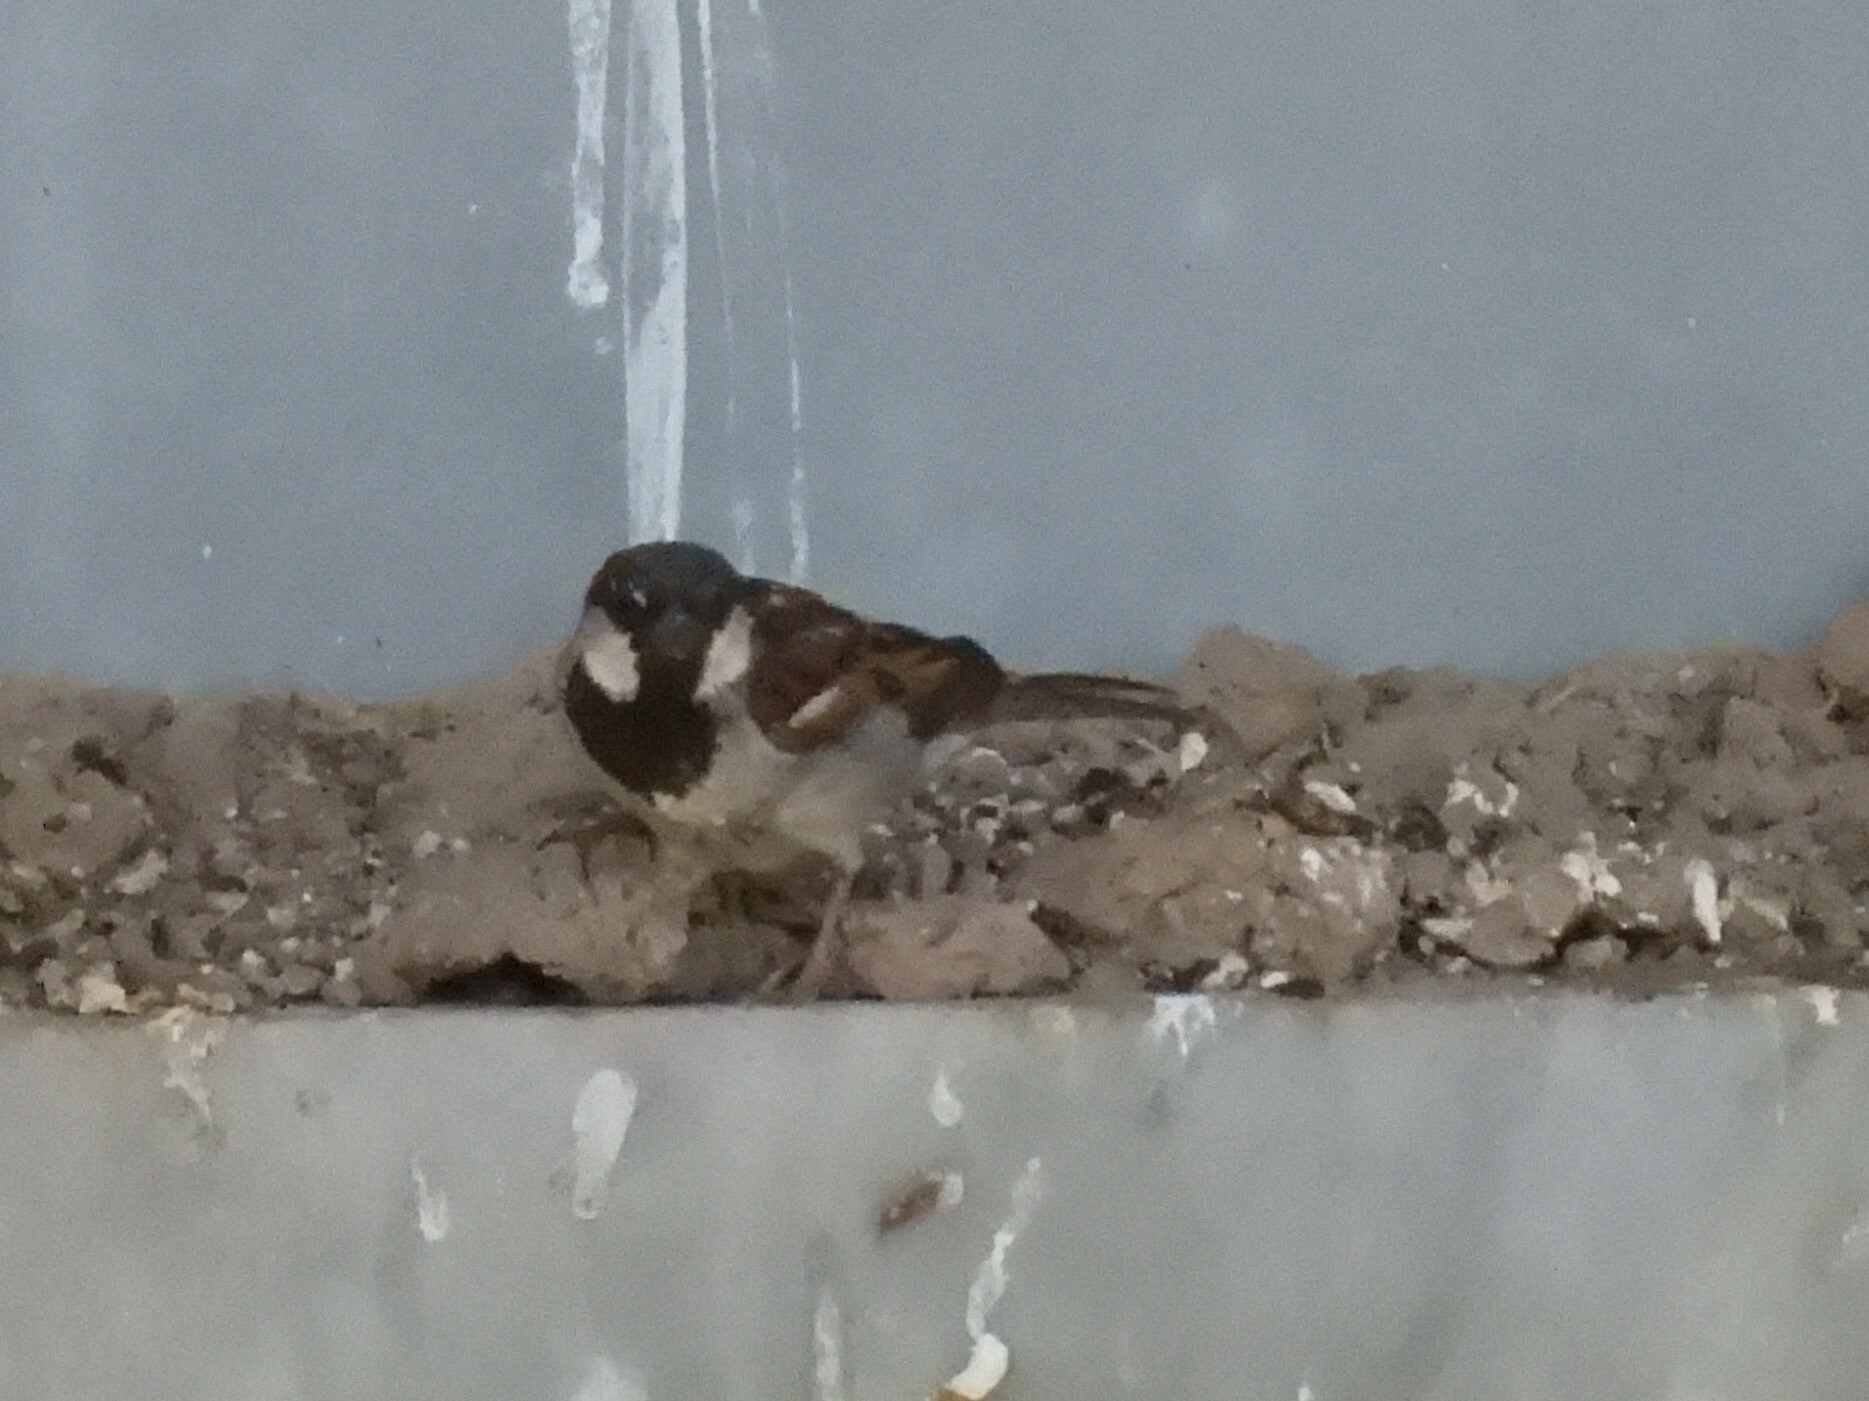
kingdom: Animalia
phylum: Chordata
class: Aves
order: Passeriformes
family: Passeridae
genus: Passer
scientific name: Passer domesticus
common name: House sparrow
